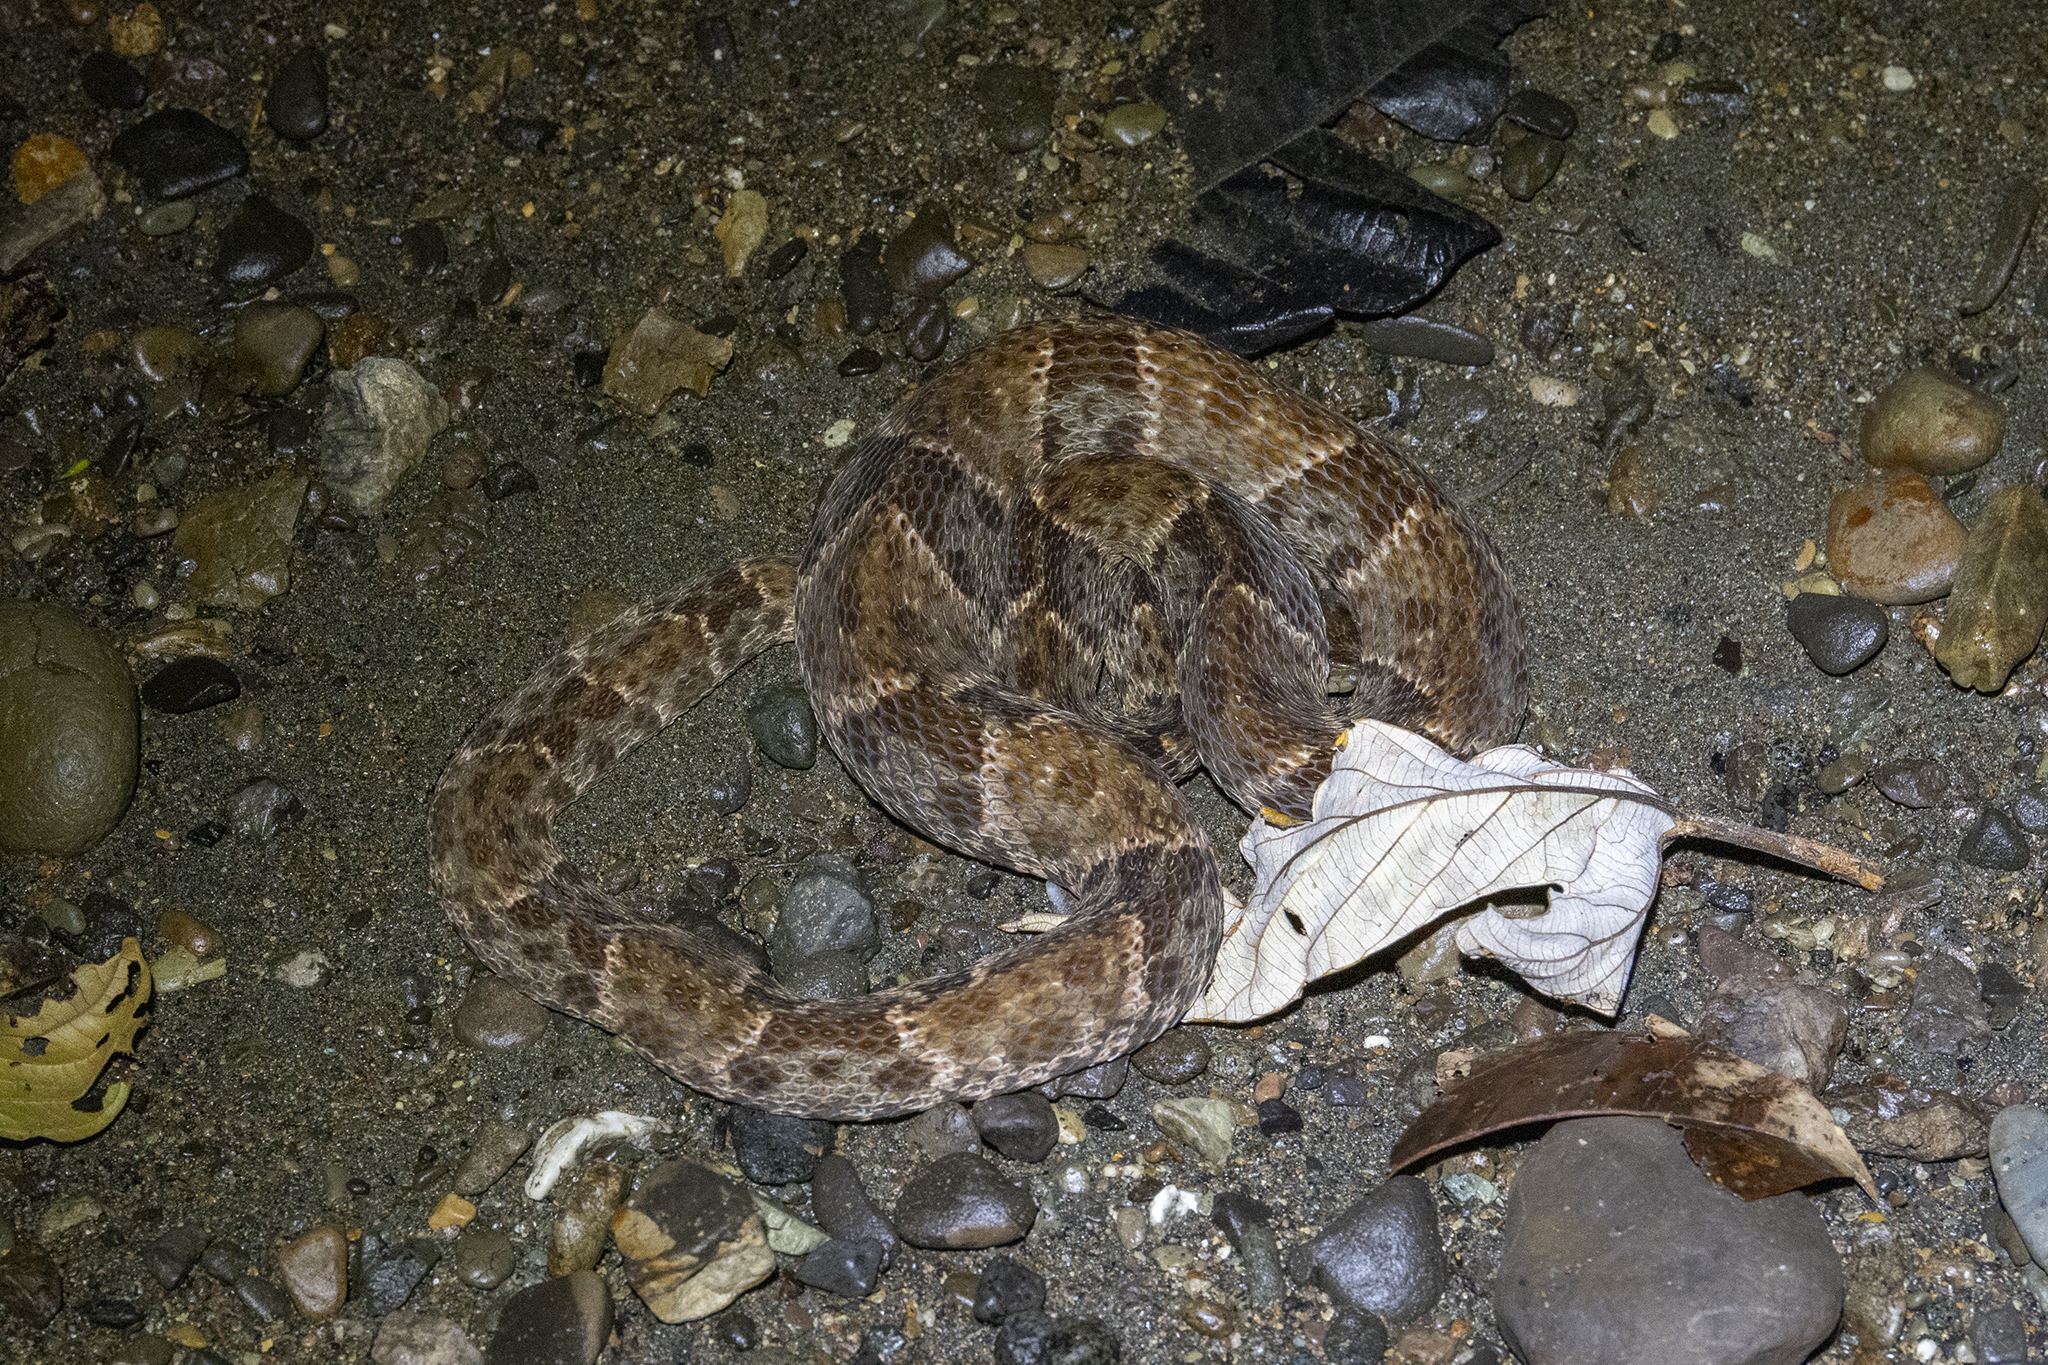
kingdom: Animalia
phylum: Chordata
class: Squamata
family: Viperidae
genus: Bothrops
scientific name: Bothrops asper
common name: Terciopelo
